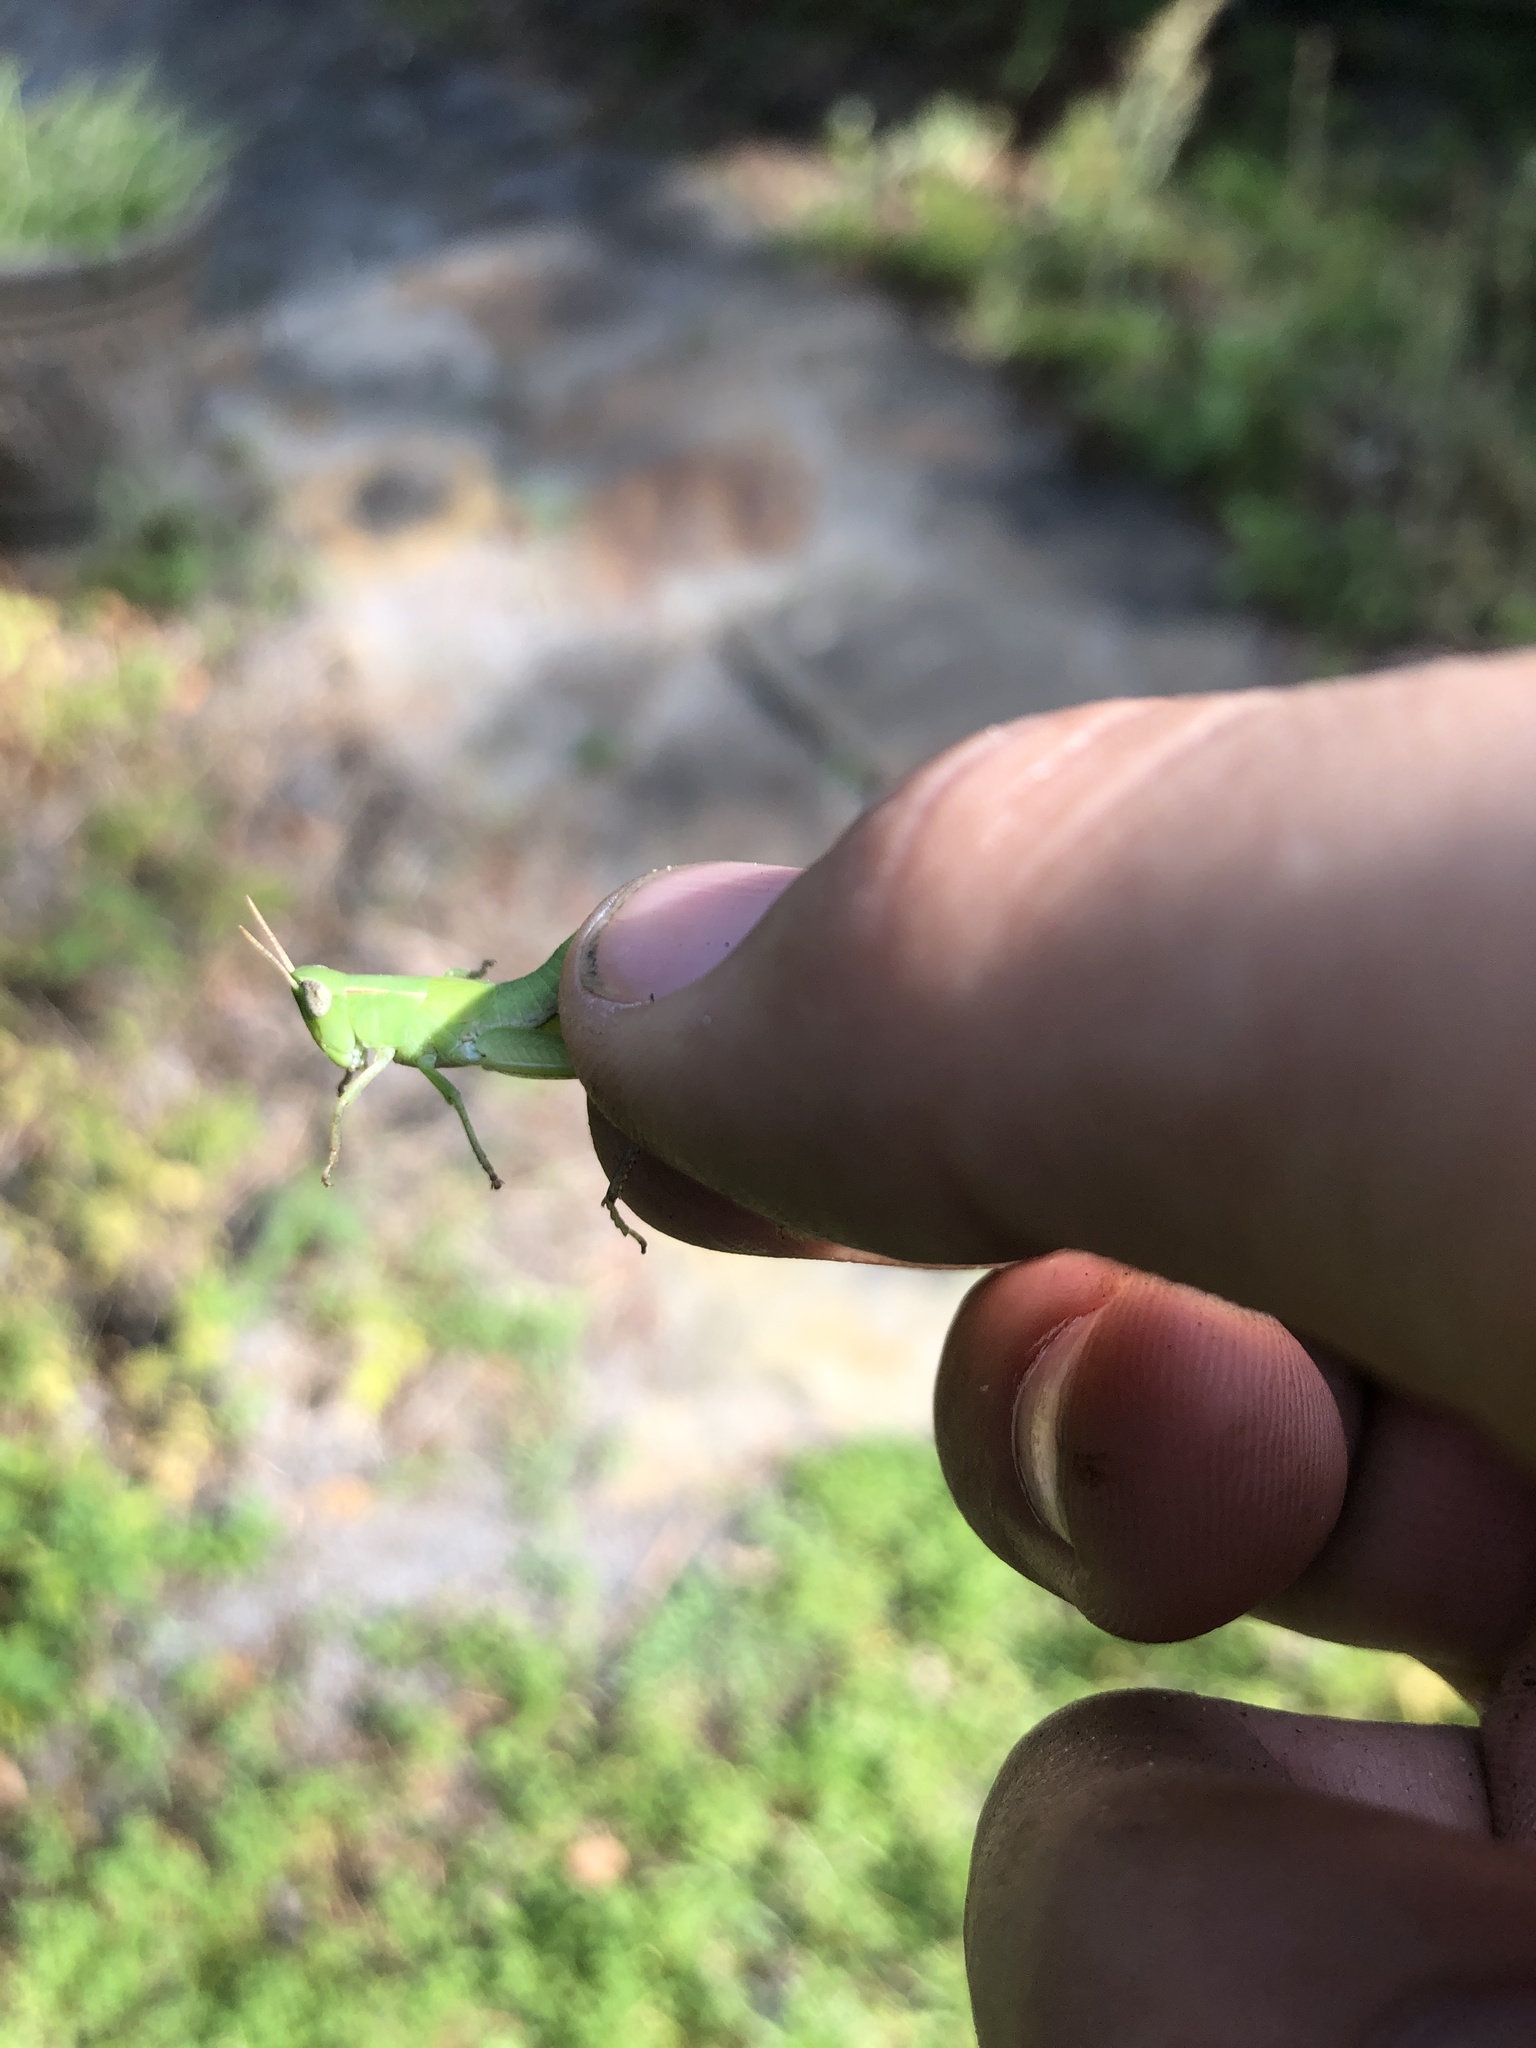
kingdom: Animalia
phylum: Arthropoda
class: Insecta
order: Orthoptera
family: Acrididae
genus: Dichromorpha
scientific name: Dichromorpha viridis
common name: Short-winged green grasshopper
